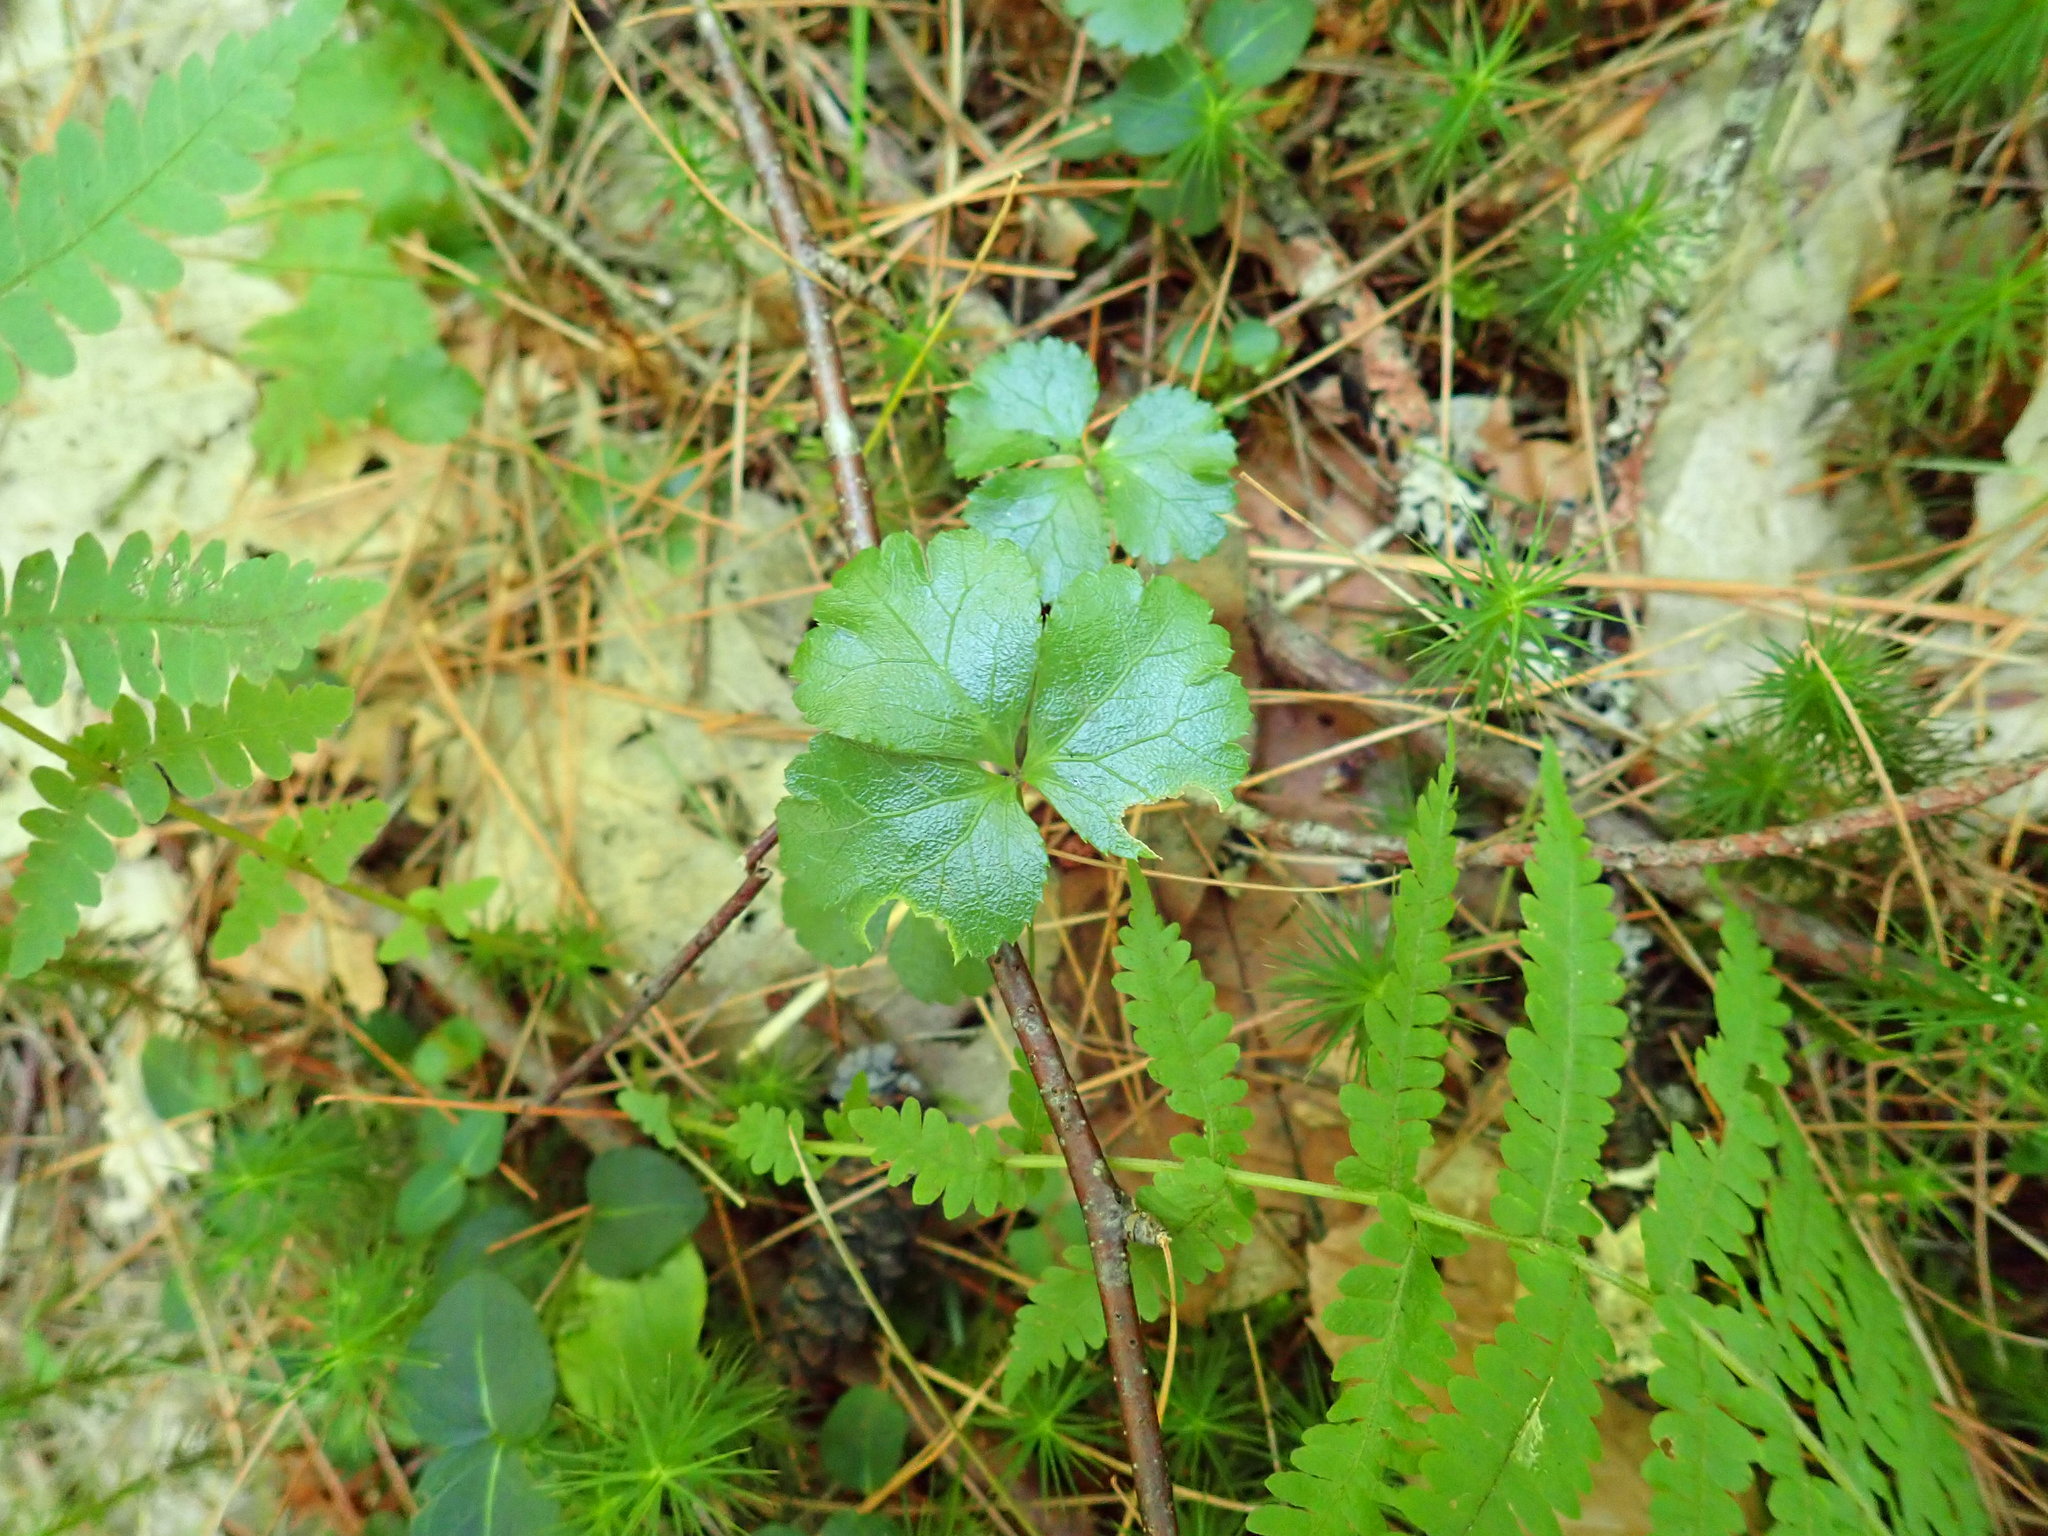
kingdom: Plantae
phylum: Tracheophyta
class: Magnoliopsida
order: Ranunculales
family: Ranunculaceae
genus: Coptis
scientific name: Coptis trifolia
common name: Canker-root
